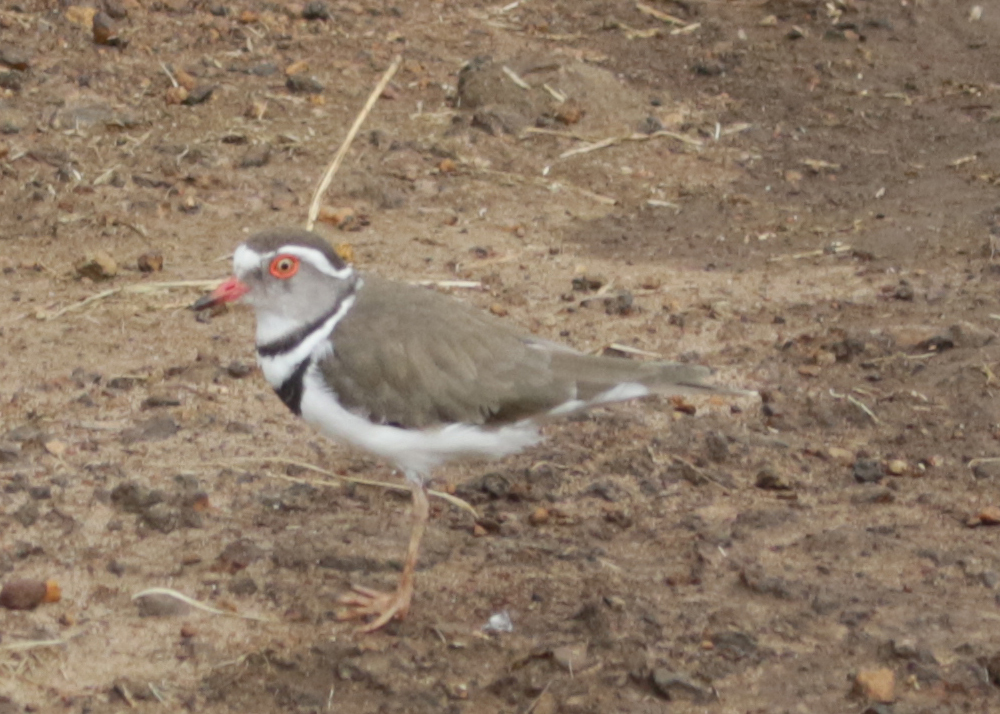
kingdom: Animalia
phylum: Chordata
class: Aves
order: Charadriiformes
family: Charadriidae
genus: Charadrius
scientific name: Charadrius tricollaris
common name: Three-banded plover
